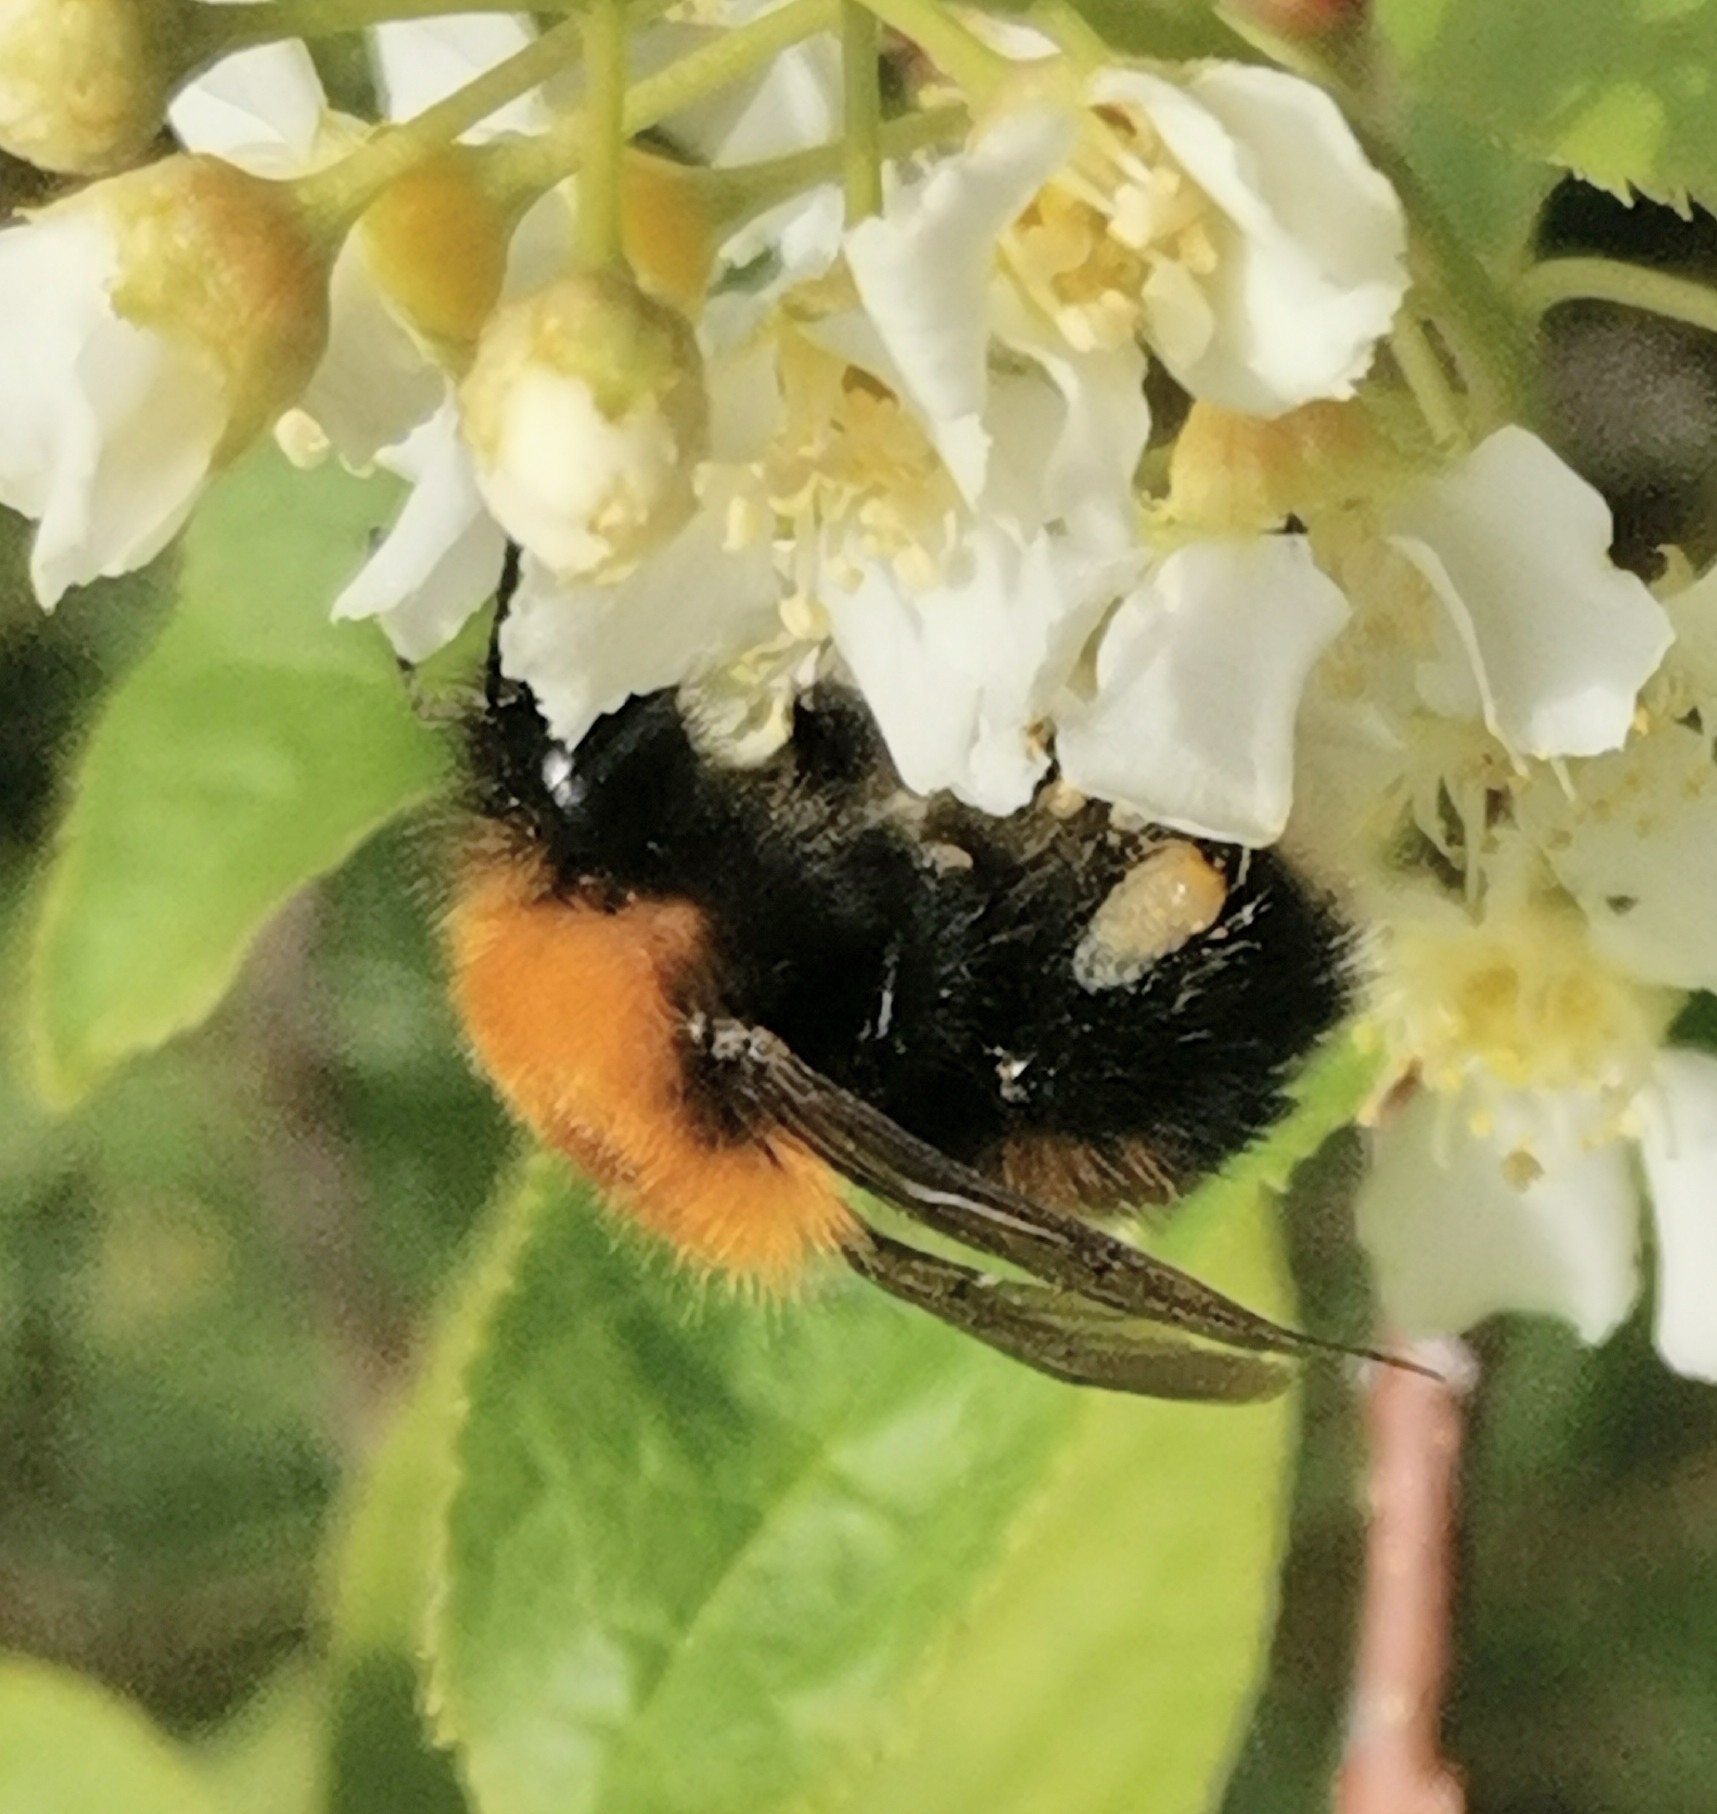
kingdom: Animalia
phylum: Arthropoda
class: Insecta
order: Hymenoptera
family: Apidae
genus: Bombus
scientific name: Bombus hypnorum
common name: New garden bumblebee
